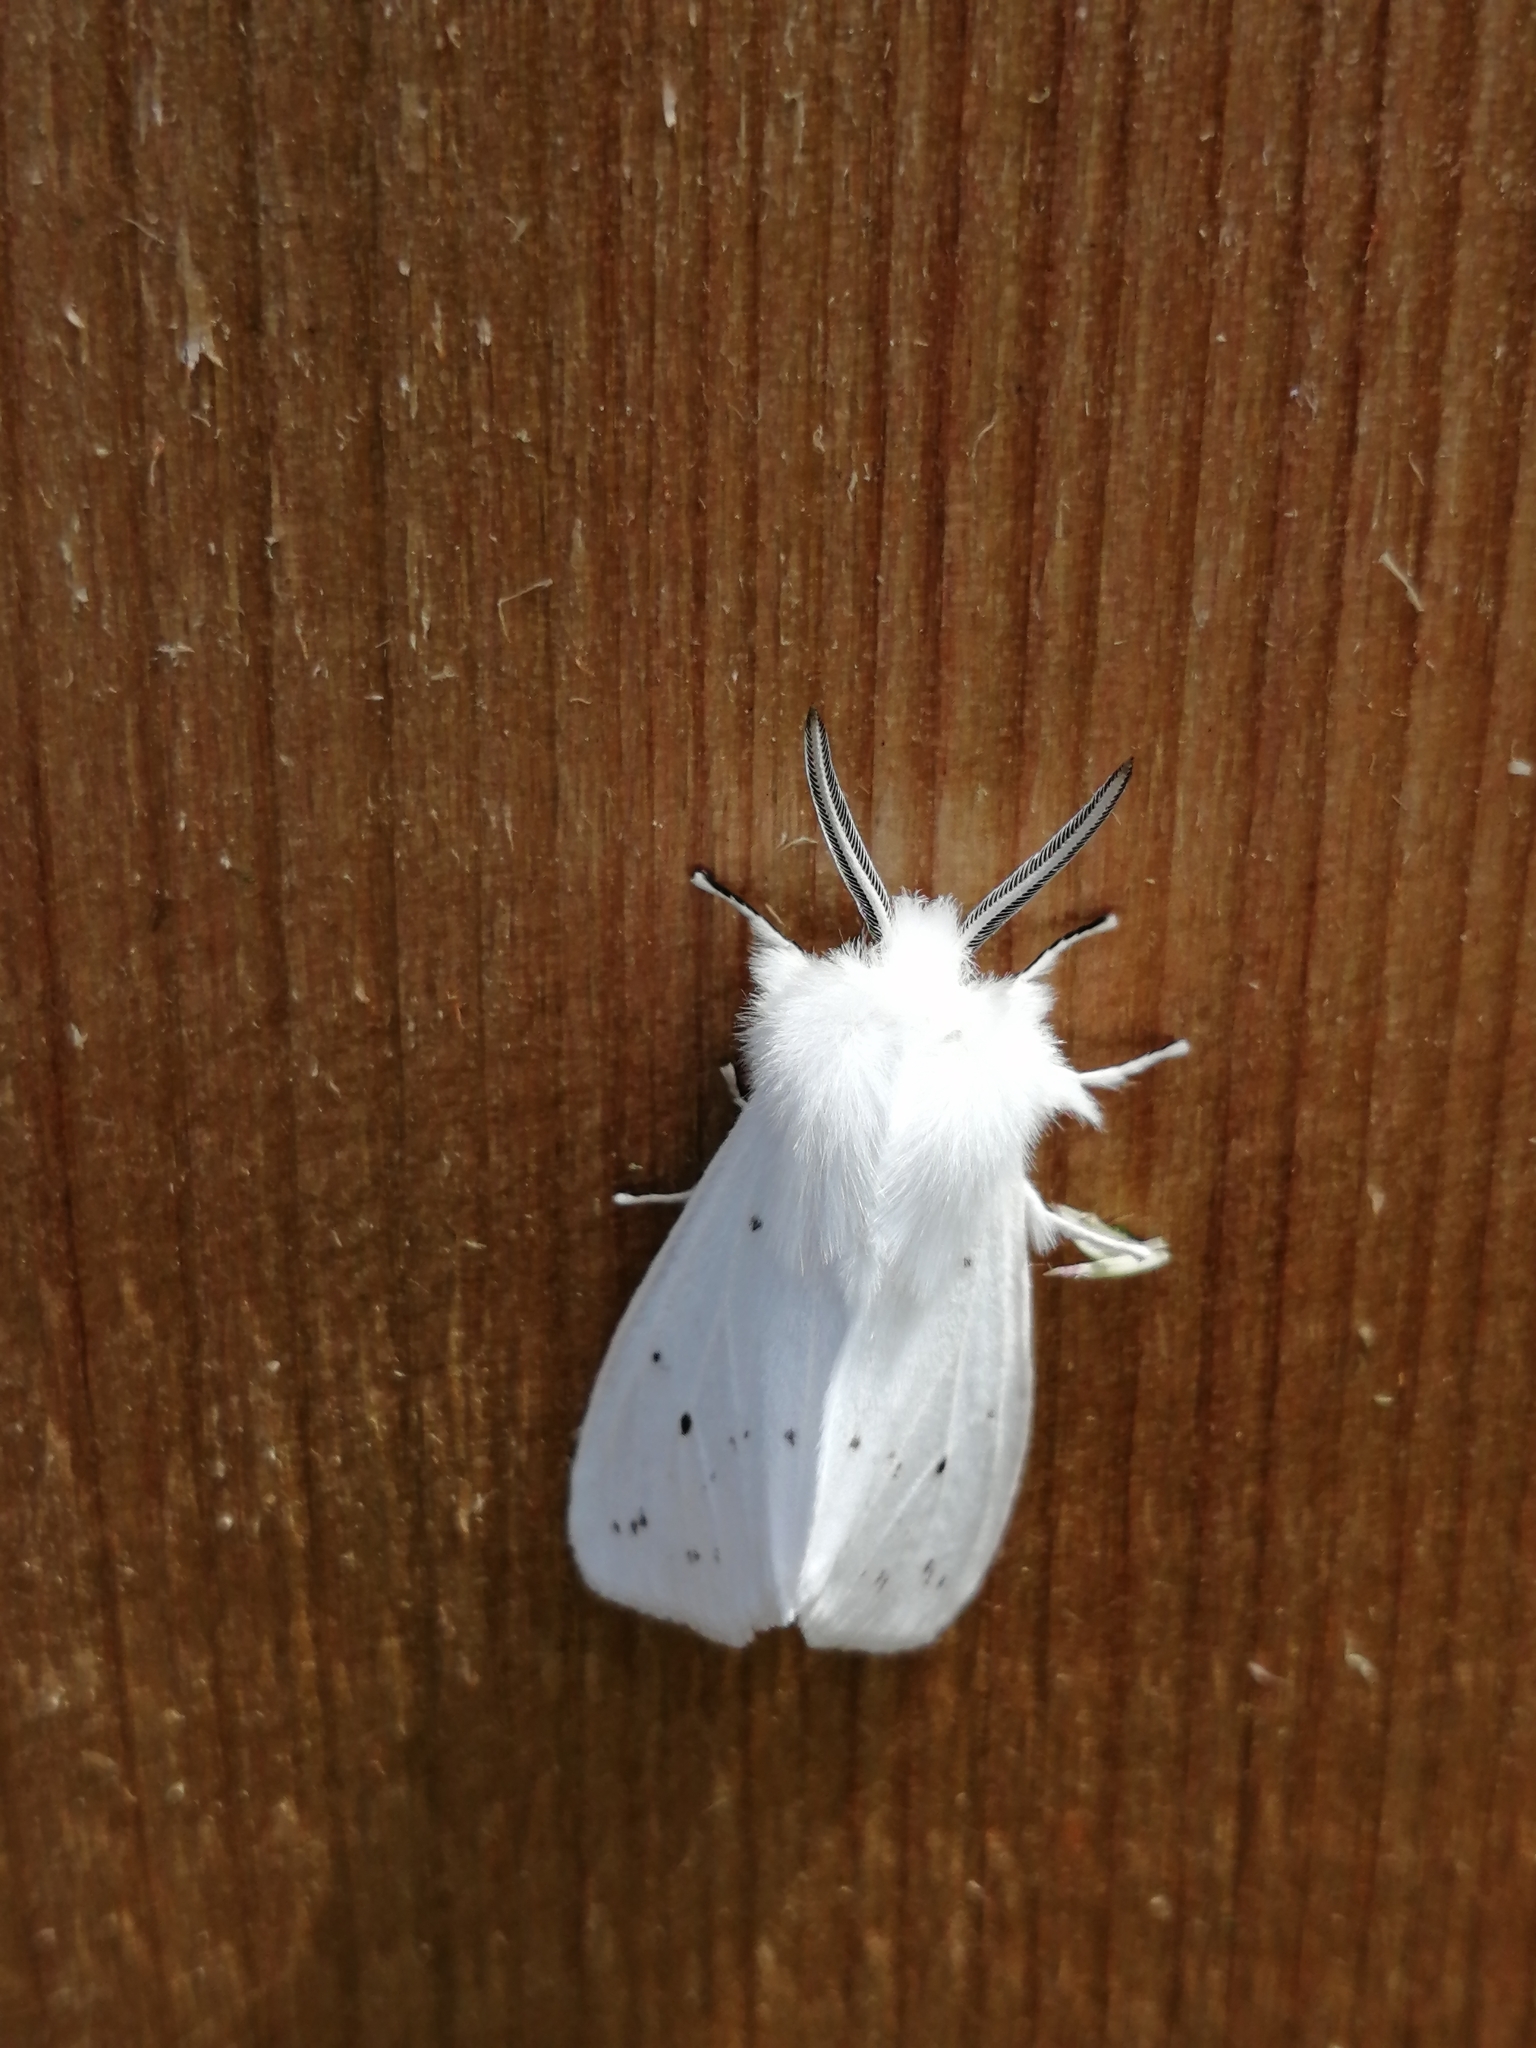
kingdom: Animalia
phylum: Arthropoda
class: Insecta
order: Lepidoptera
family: Erebidae
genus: Spilosoma
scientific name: Spilosoma congrua
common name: Agreeable tiger moth
